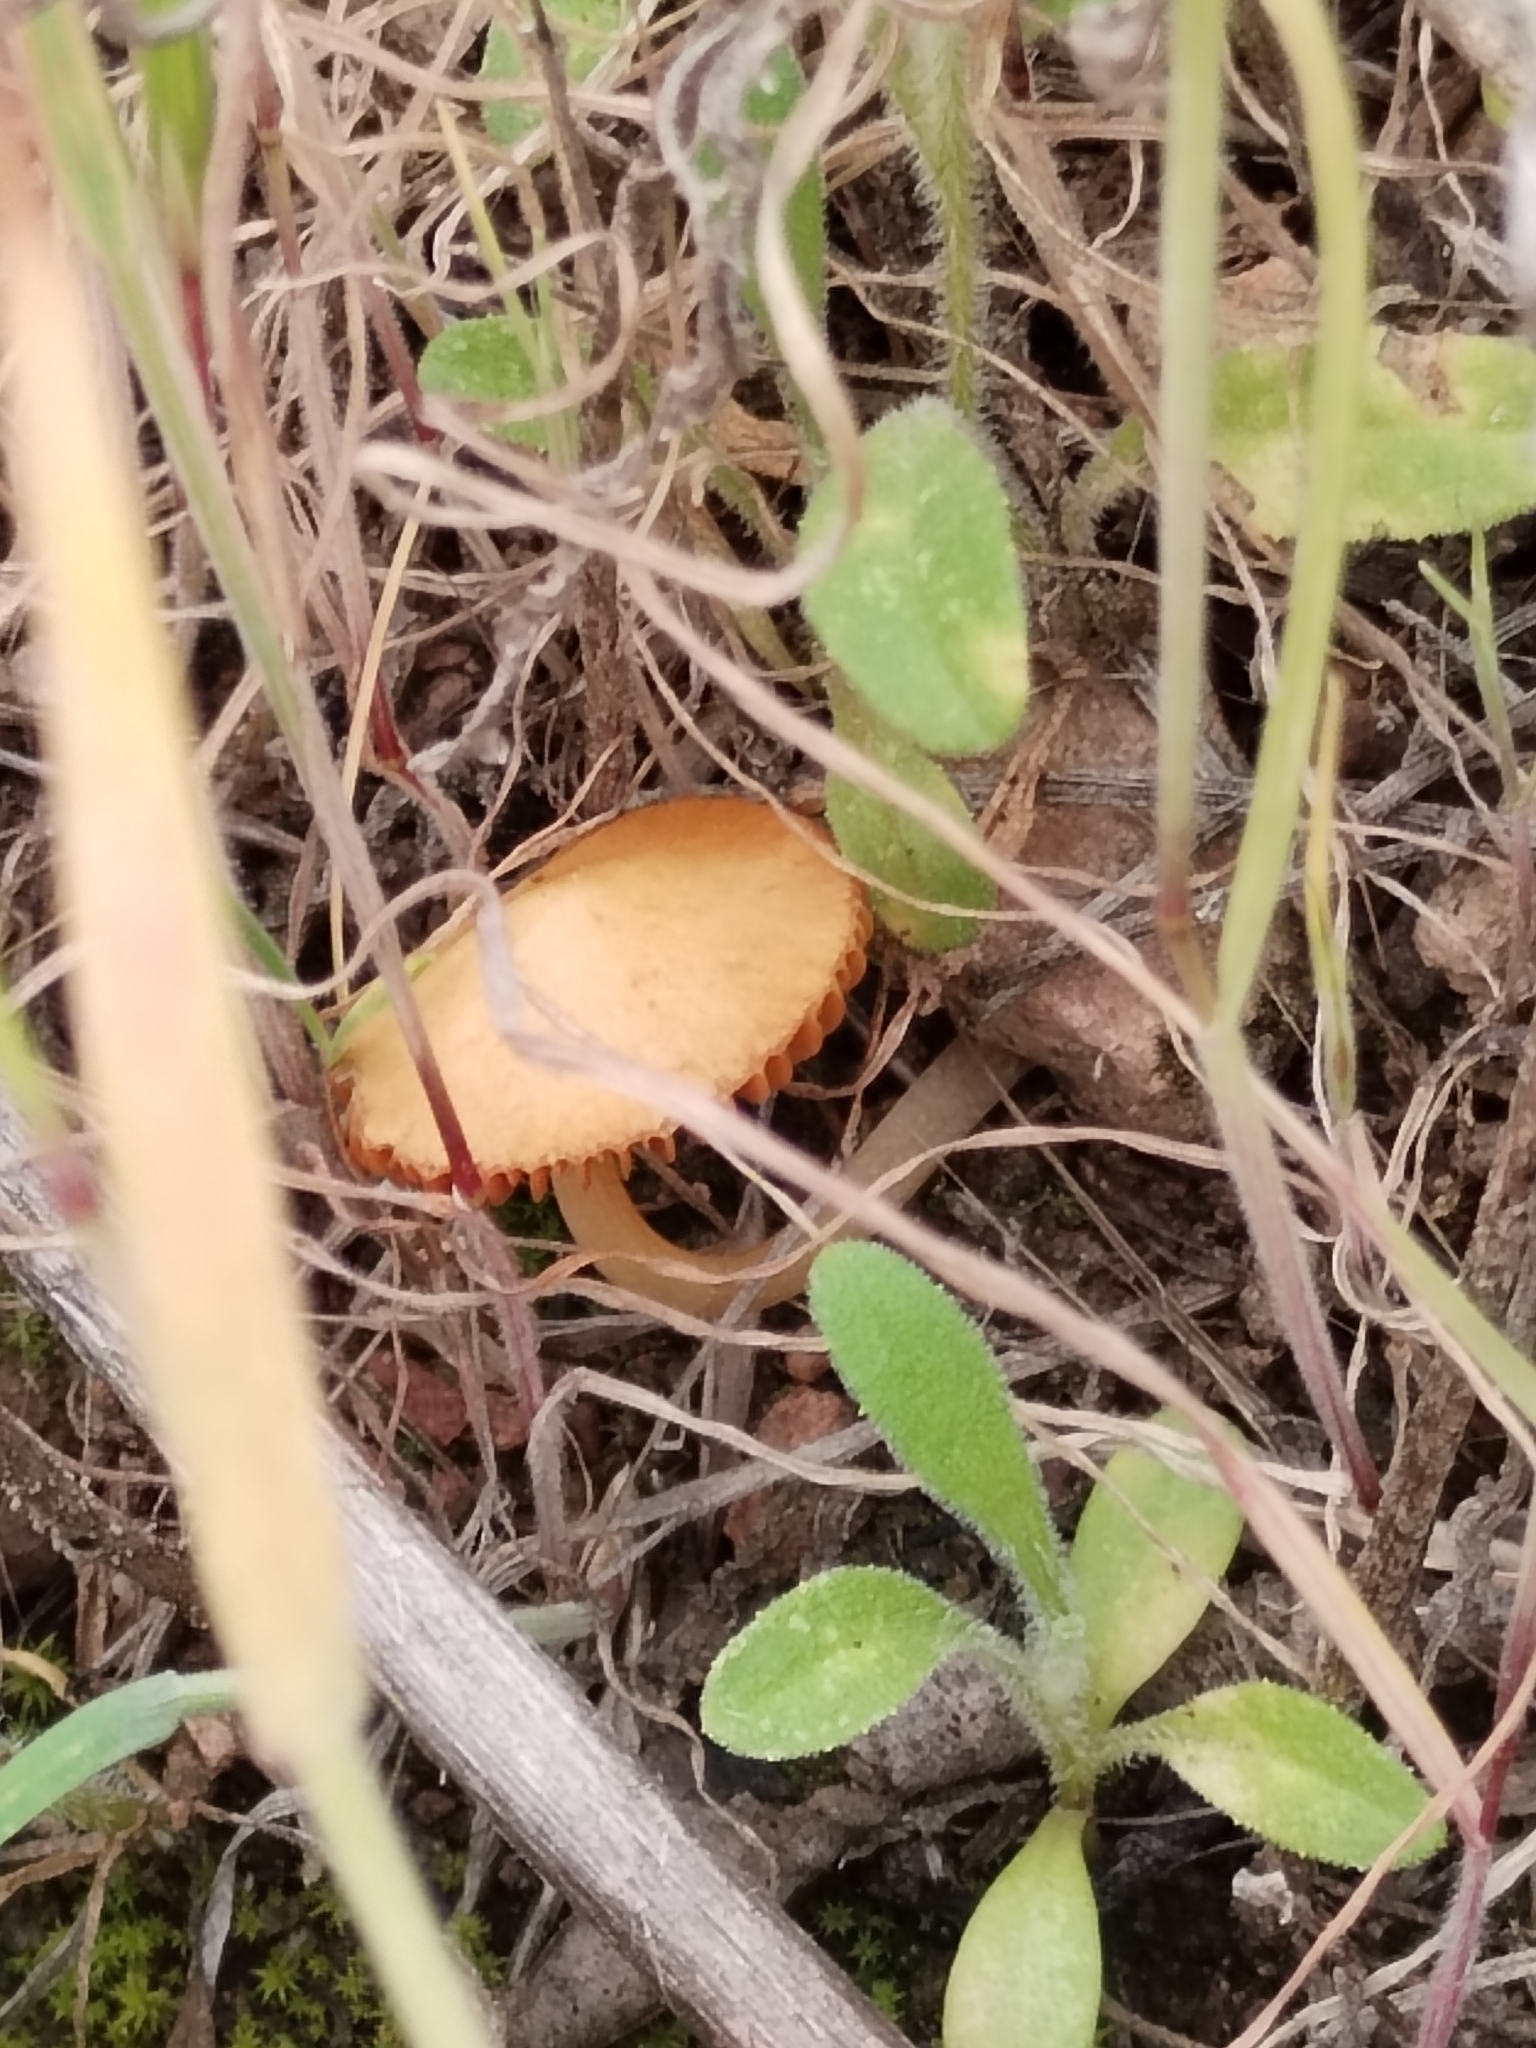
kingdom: Fungi
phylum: Basidiomycota
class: Agaricomycetes
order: Agaricales
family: Strophariaceae
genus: Agrocybe
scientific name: Agrocybe pediades
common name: Common fieldcap
